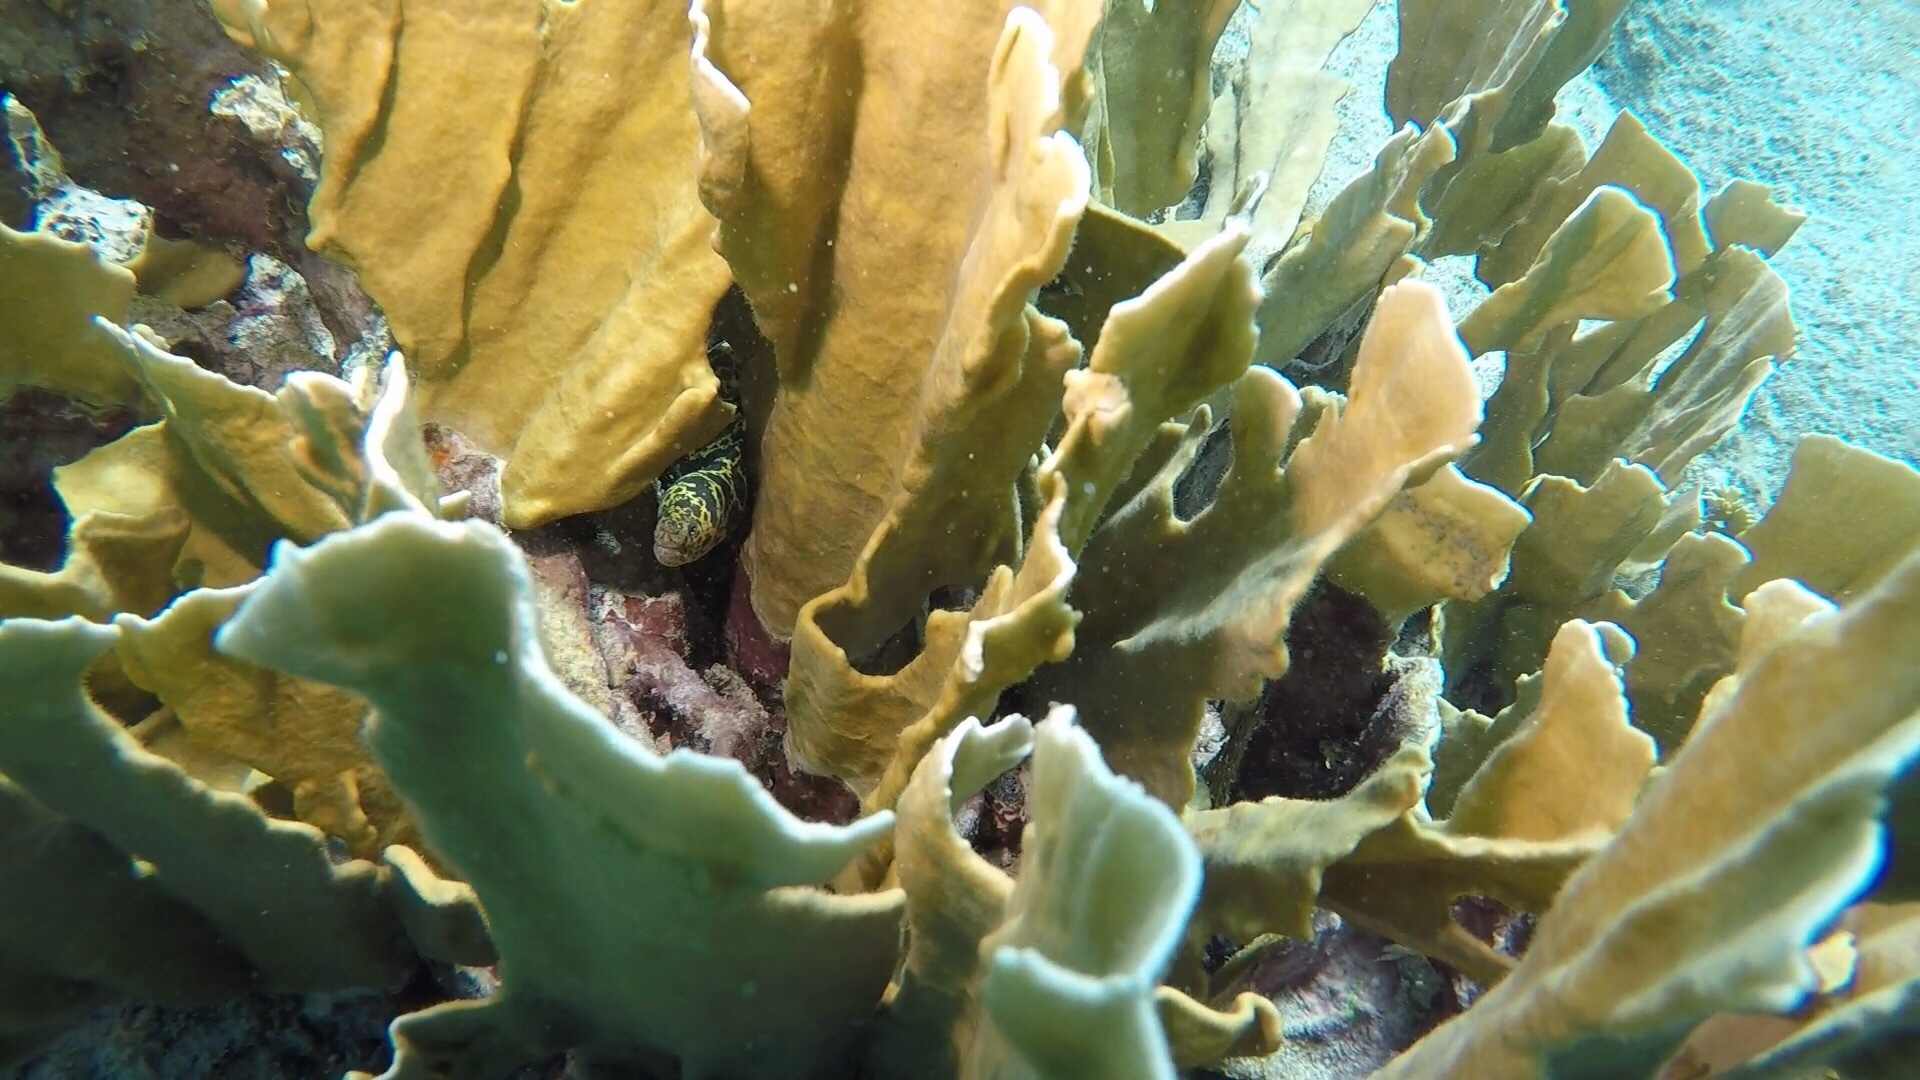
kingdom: Animalia
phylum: Cnidaria
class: Hydrozoa
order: Anthoathecata
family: Milleporidae
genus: Millepora
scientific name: Millepora complanata
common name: Bladed fire coral
